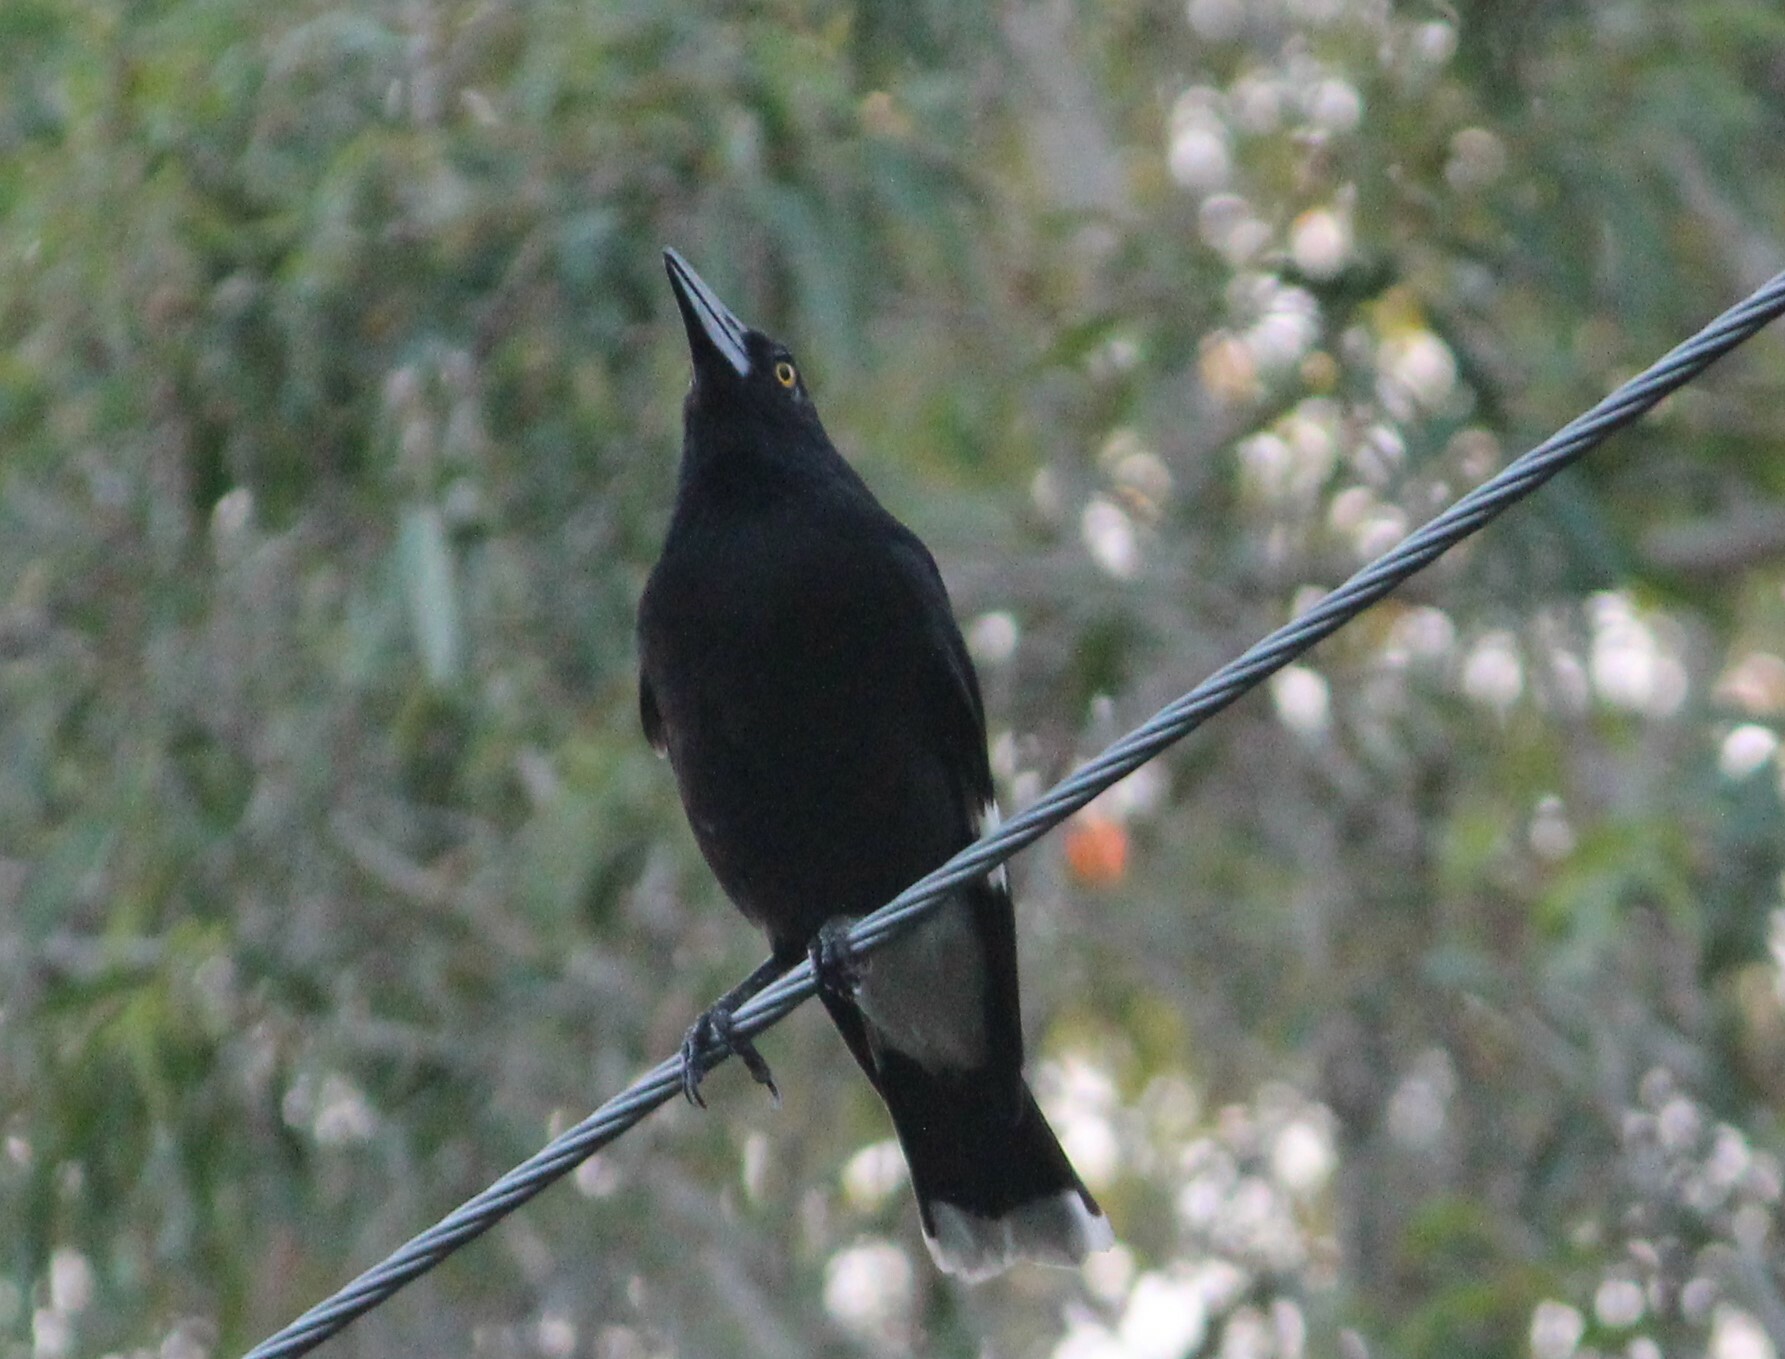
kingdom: Animalia
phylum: Chordata
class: Aves
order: Passeriformes
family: Cracticidae
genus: Strepera
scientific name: Strepera graculina
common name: Pied currawong
